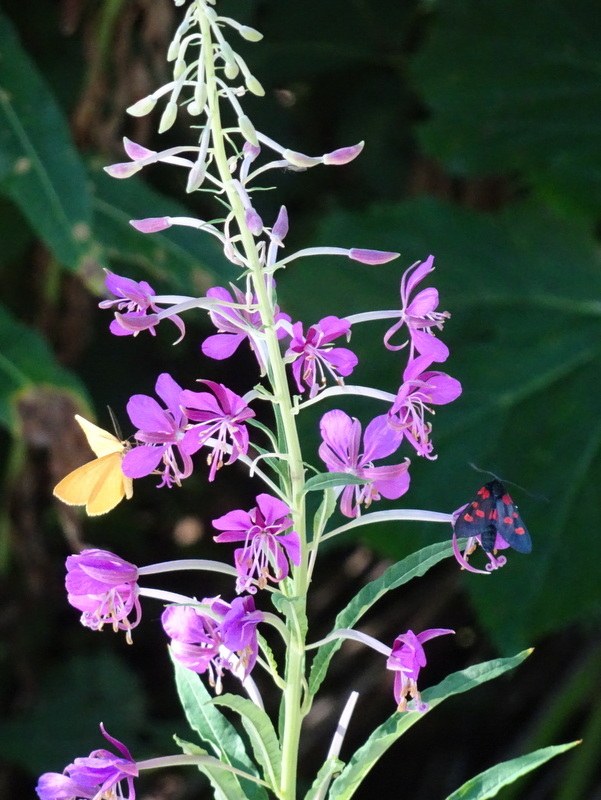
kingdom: Plantae
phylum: Tracheophyta
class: Magnoliopsida
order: Myrtales
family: Onagraceae
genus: Chamaenerion
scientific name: Chamaenerion angustifolium
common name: Fireweed
